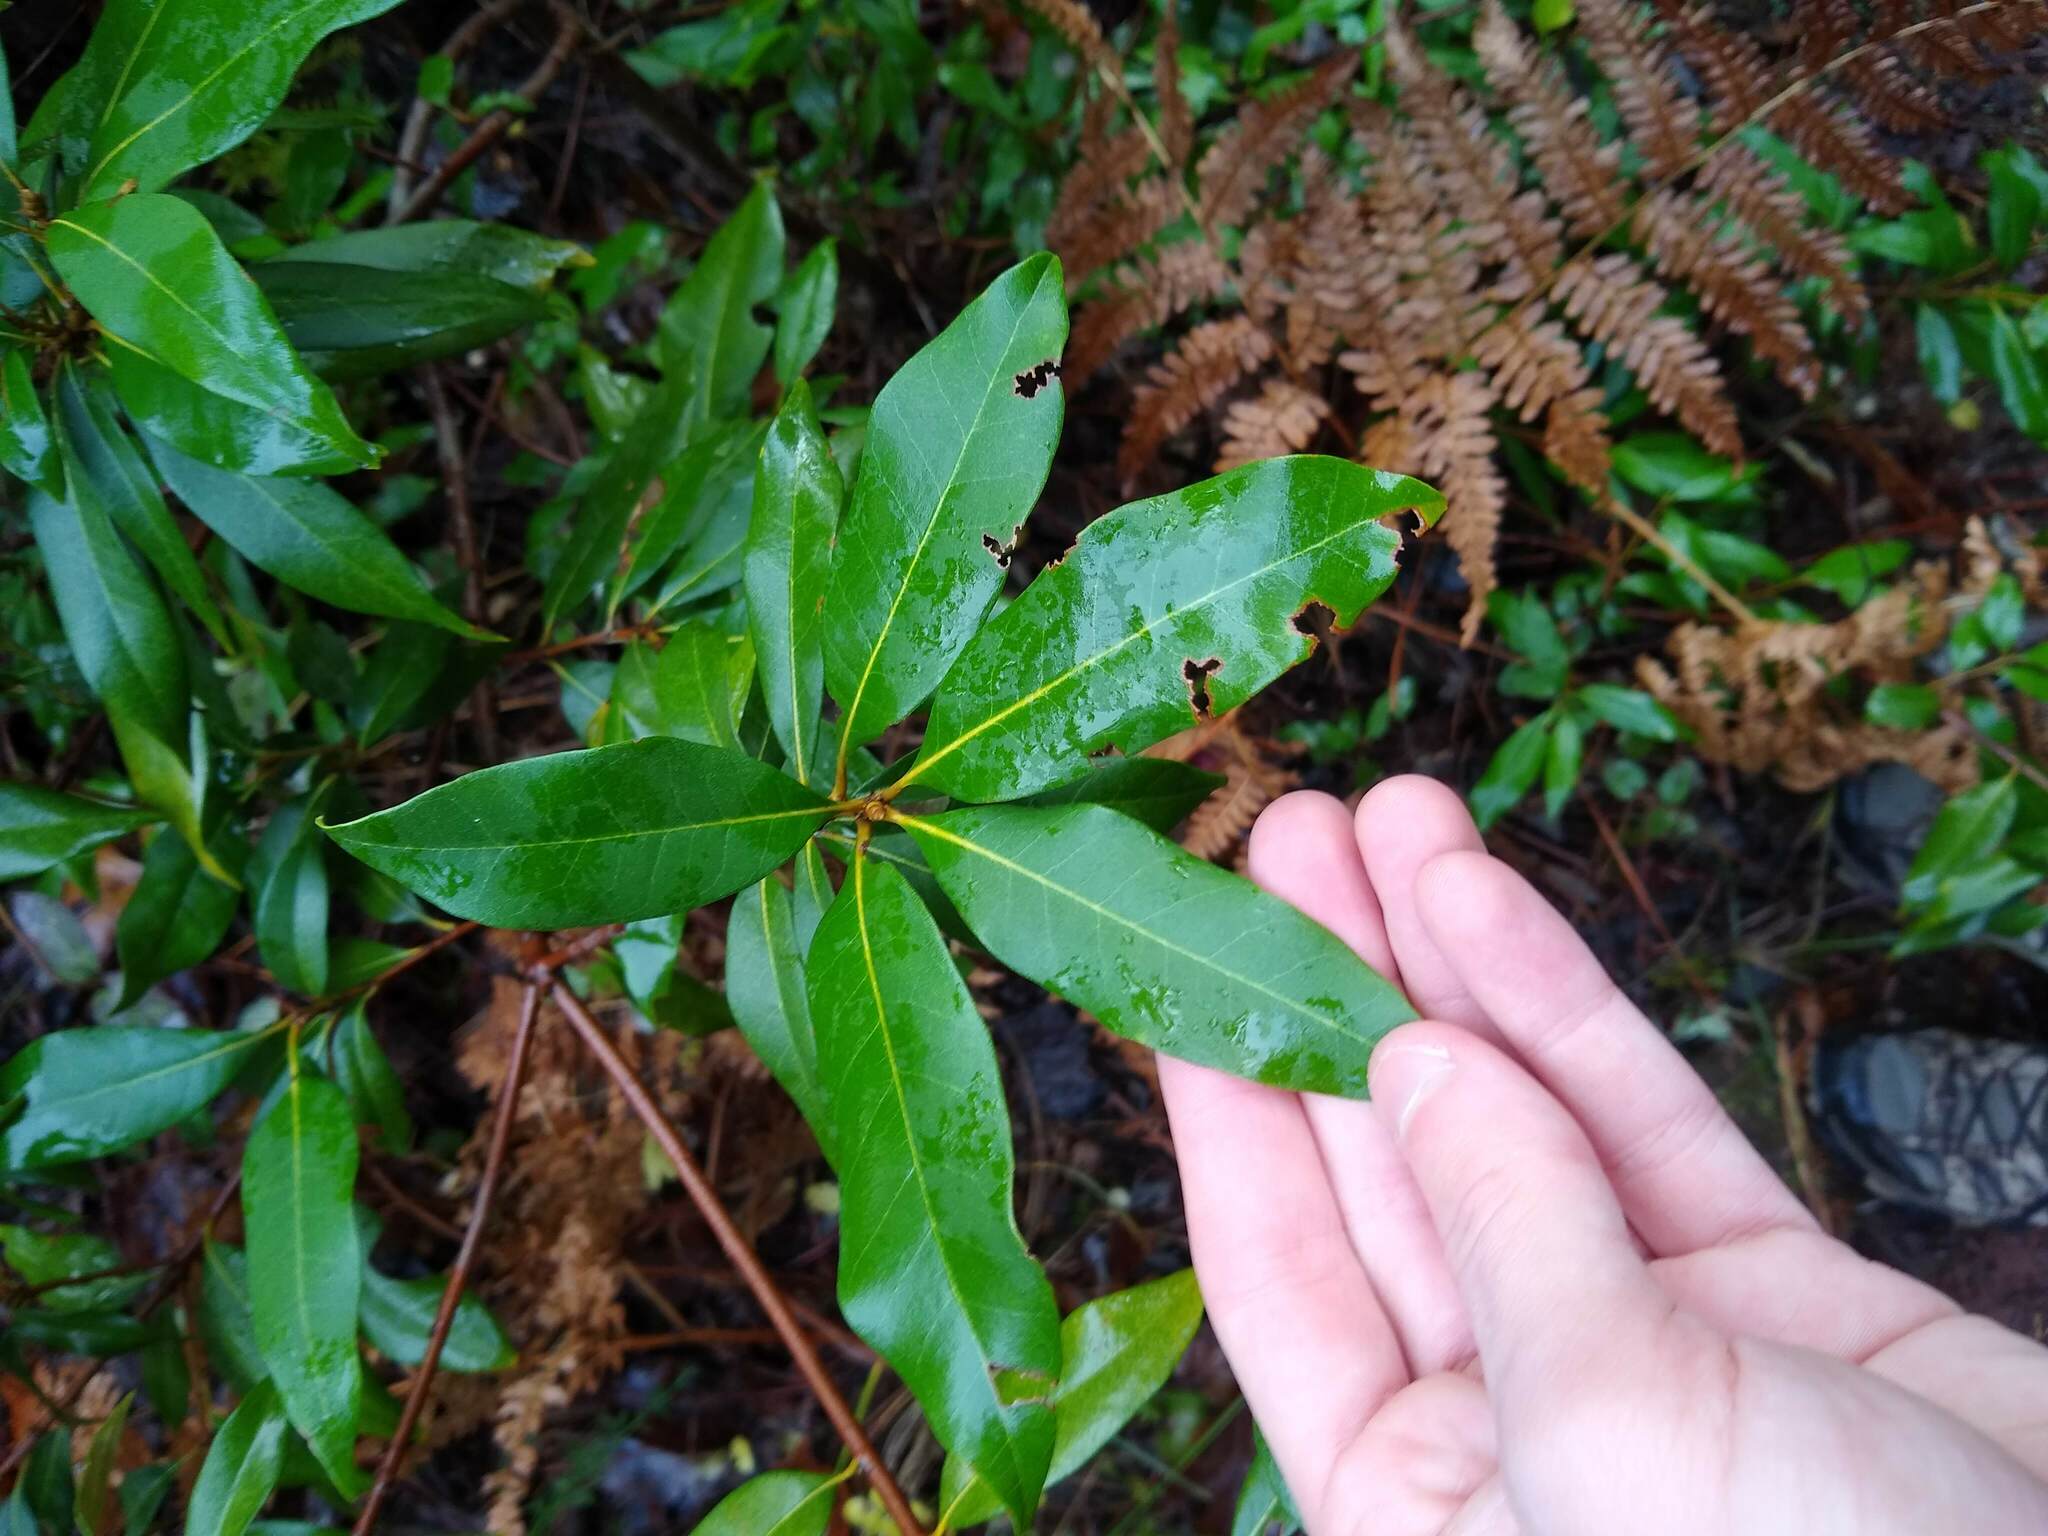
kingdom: Plantae
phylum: Tracheophyta
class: Magnoliopsida
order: Fagales
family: Fagaceae
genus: Chrysolepis
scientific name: Chrysolepis chrysophylla
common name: Giant chinquapin
